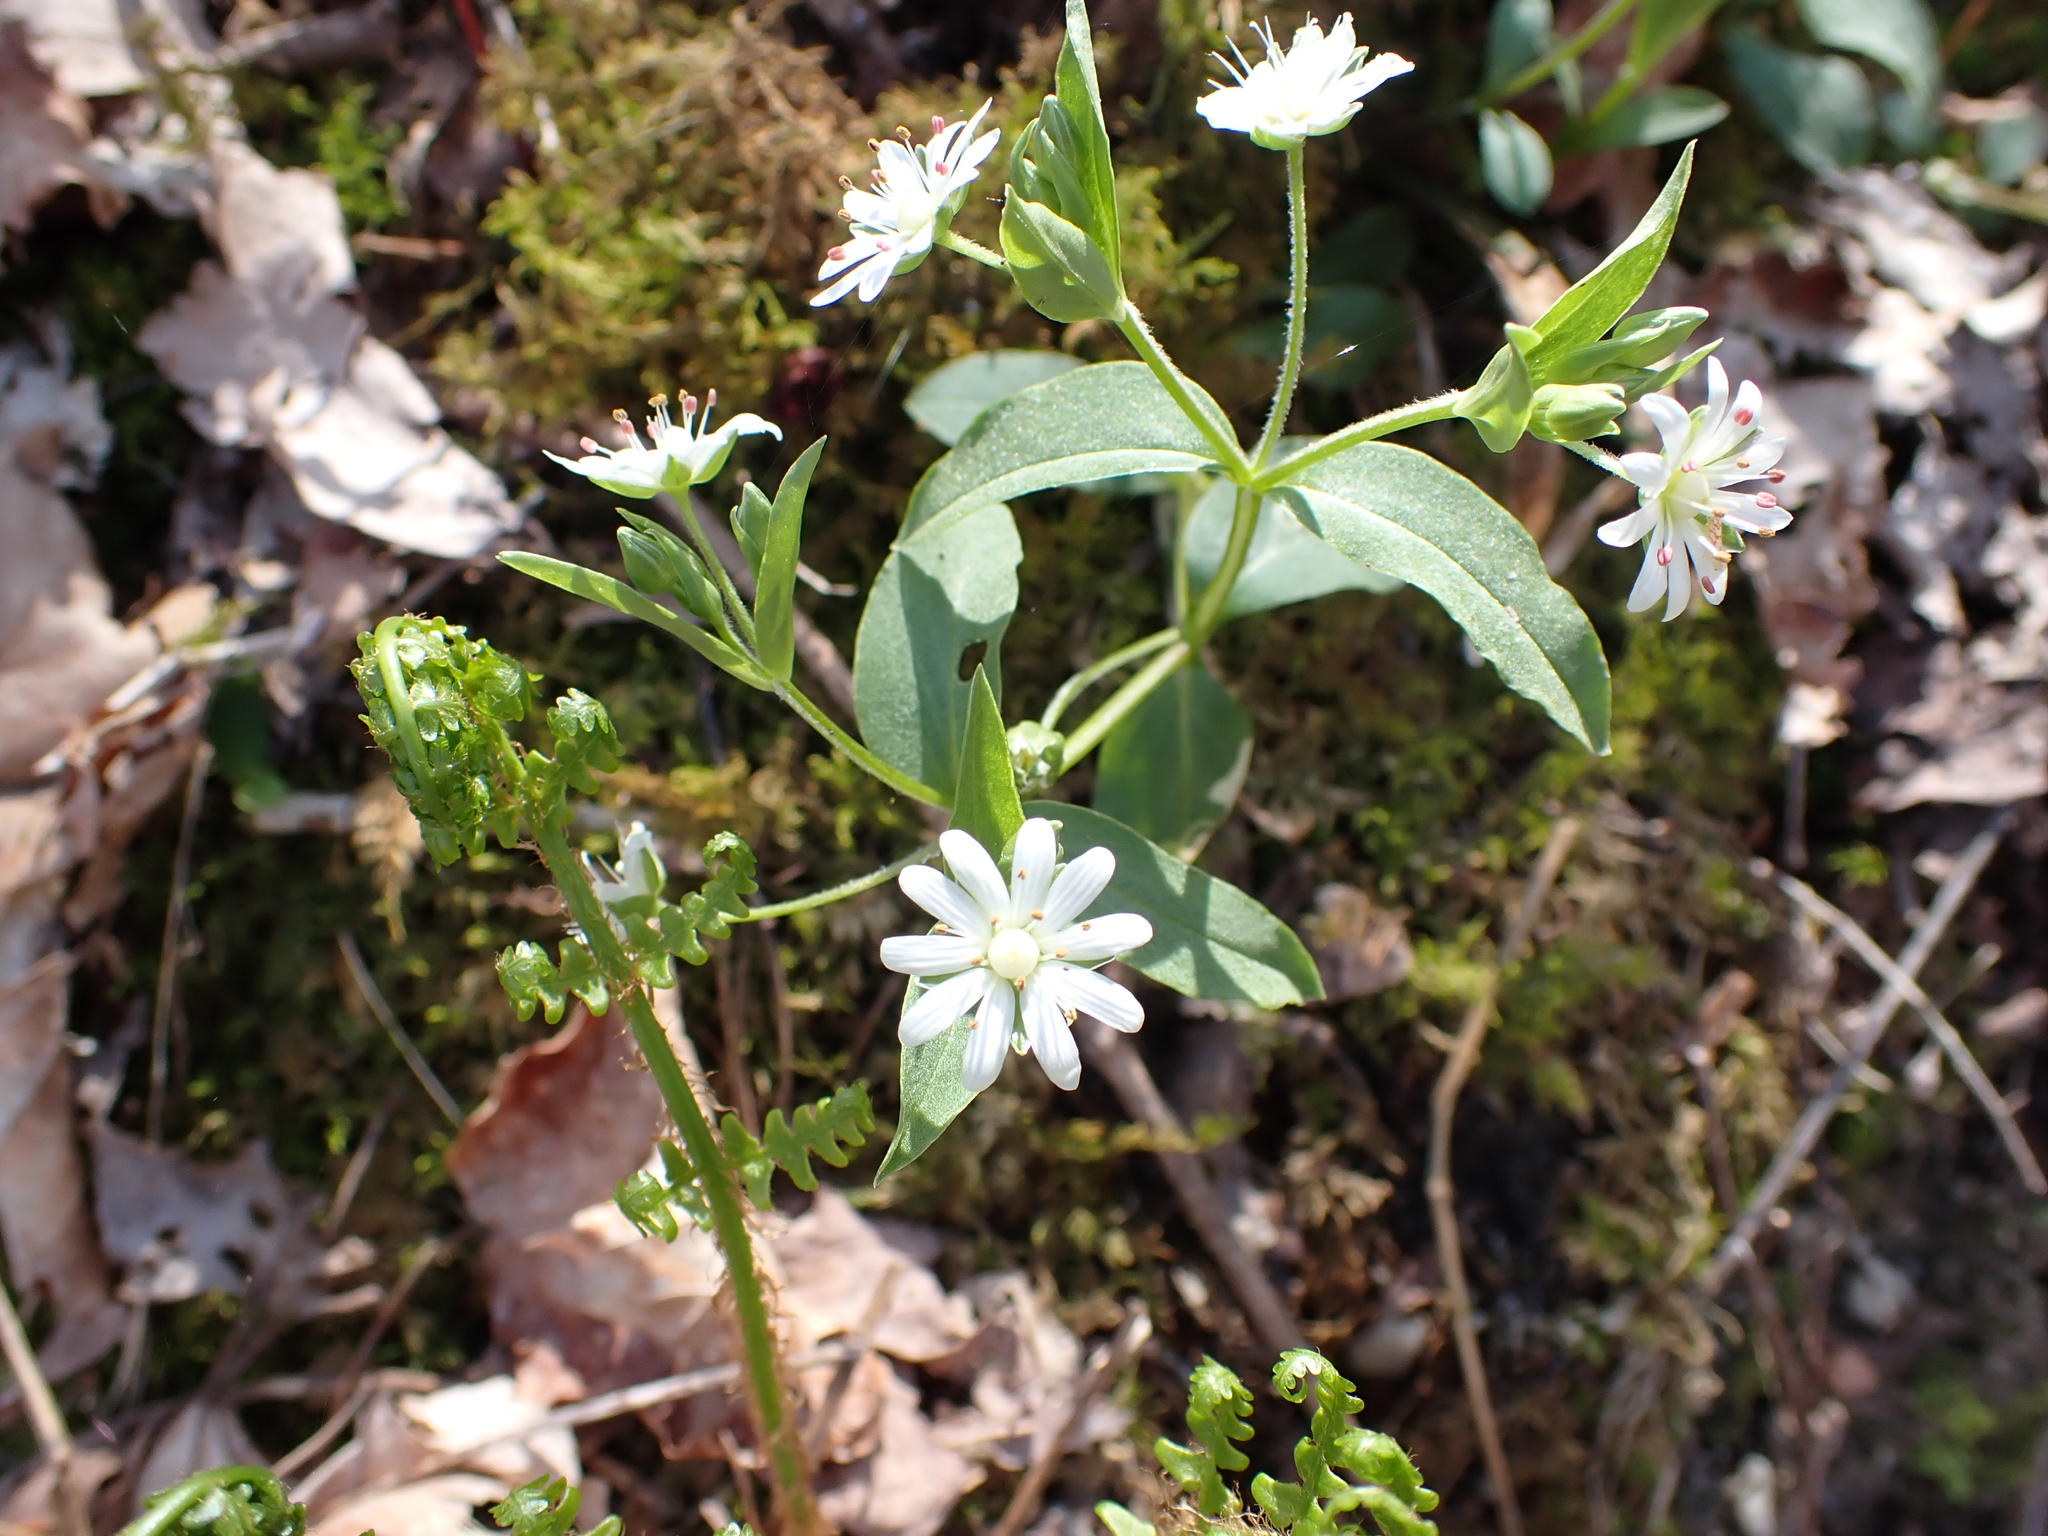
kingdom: Plantae
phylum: Tracheophyta
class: Magnoliopsida
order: Caryophyllales
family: Caryophyllaceae
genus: Stellaria
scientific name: Stellaria pubera
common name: Star chickweed
